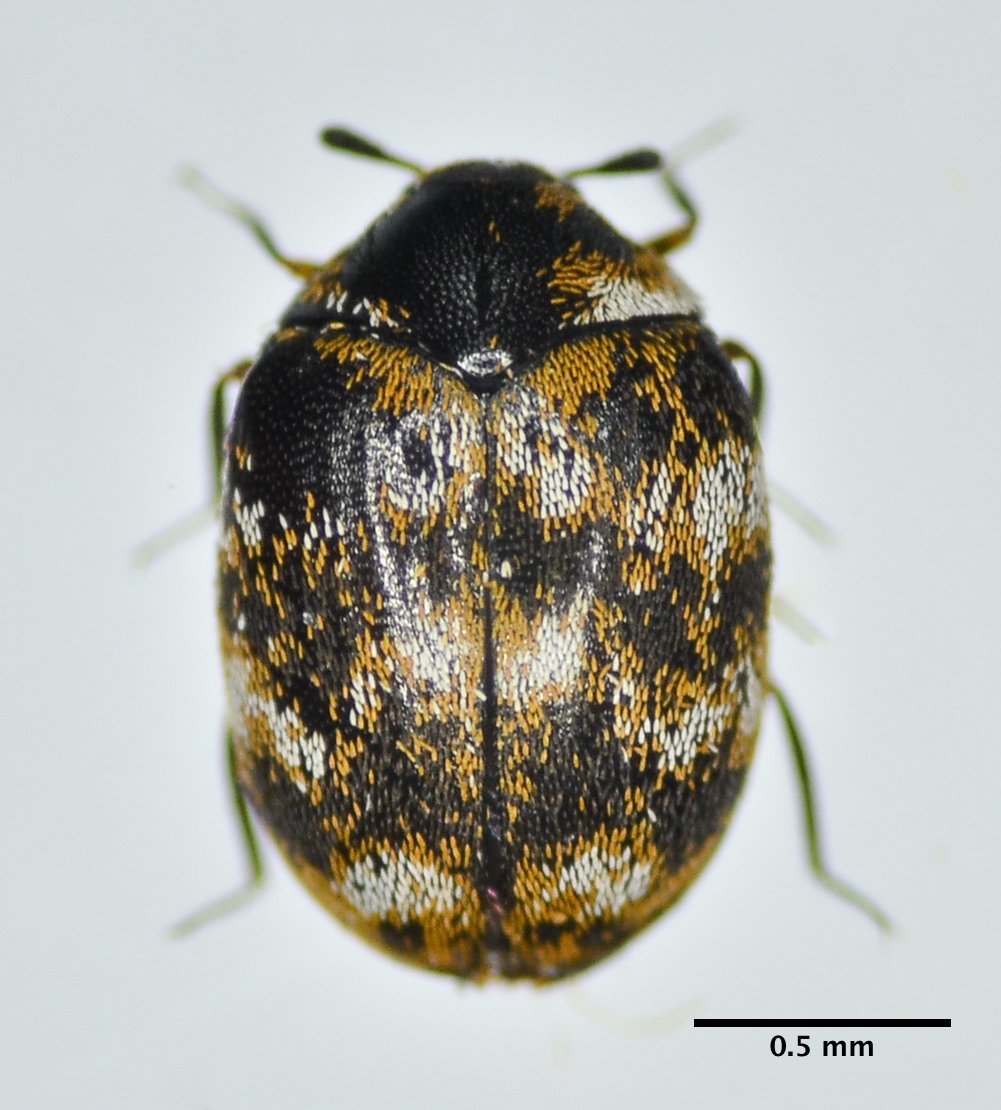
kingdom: Animalia
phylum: Arthropoda
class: Insecta
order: Coleoptera
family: Dermestidae
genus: Anthrenus
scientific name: Anthrenus verbasci
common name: Varied carpet beetle
